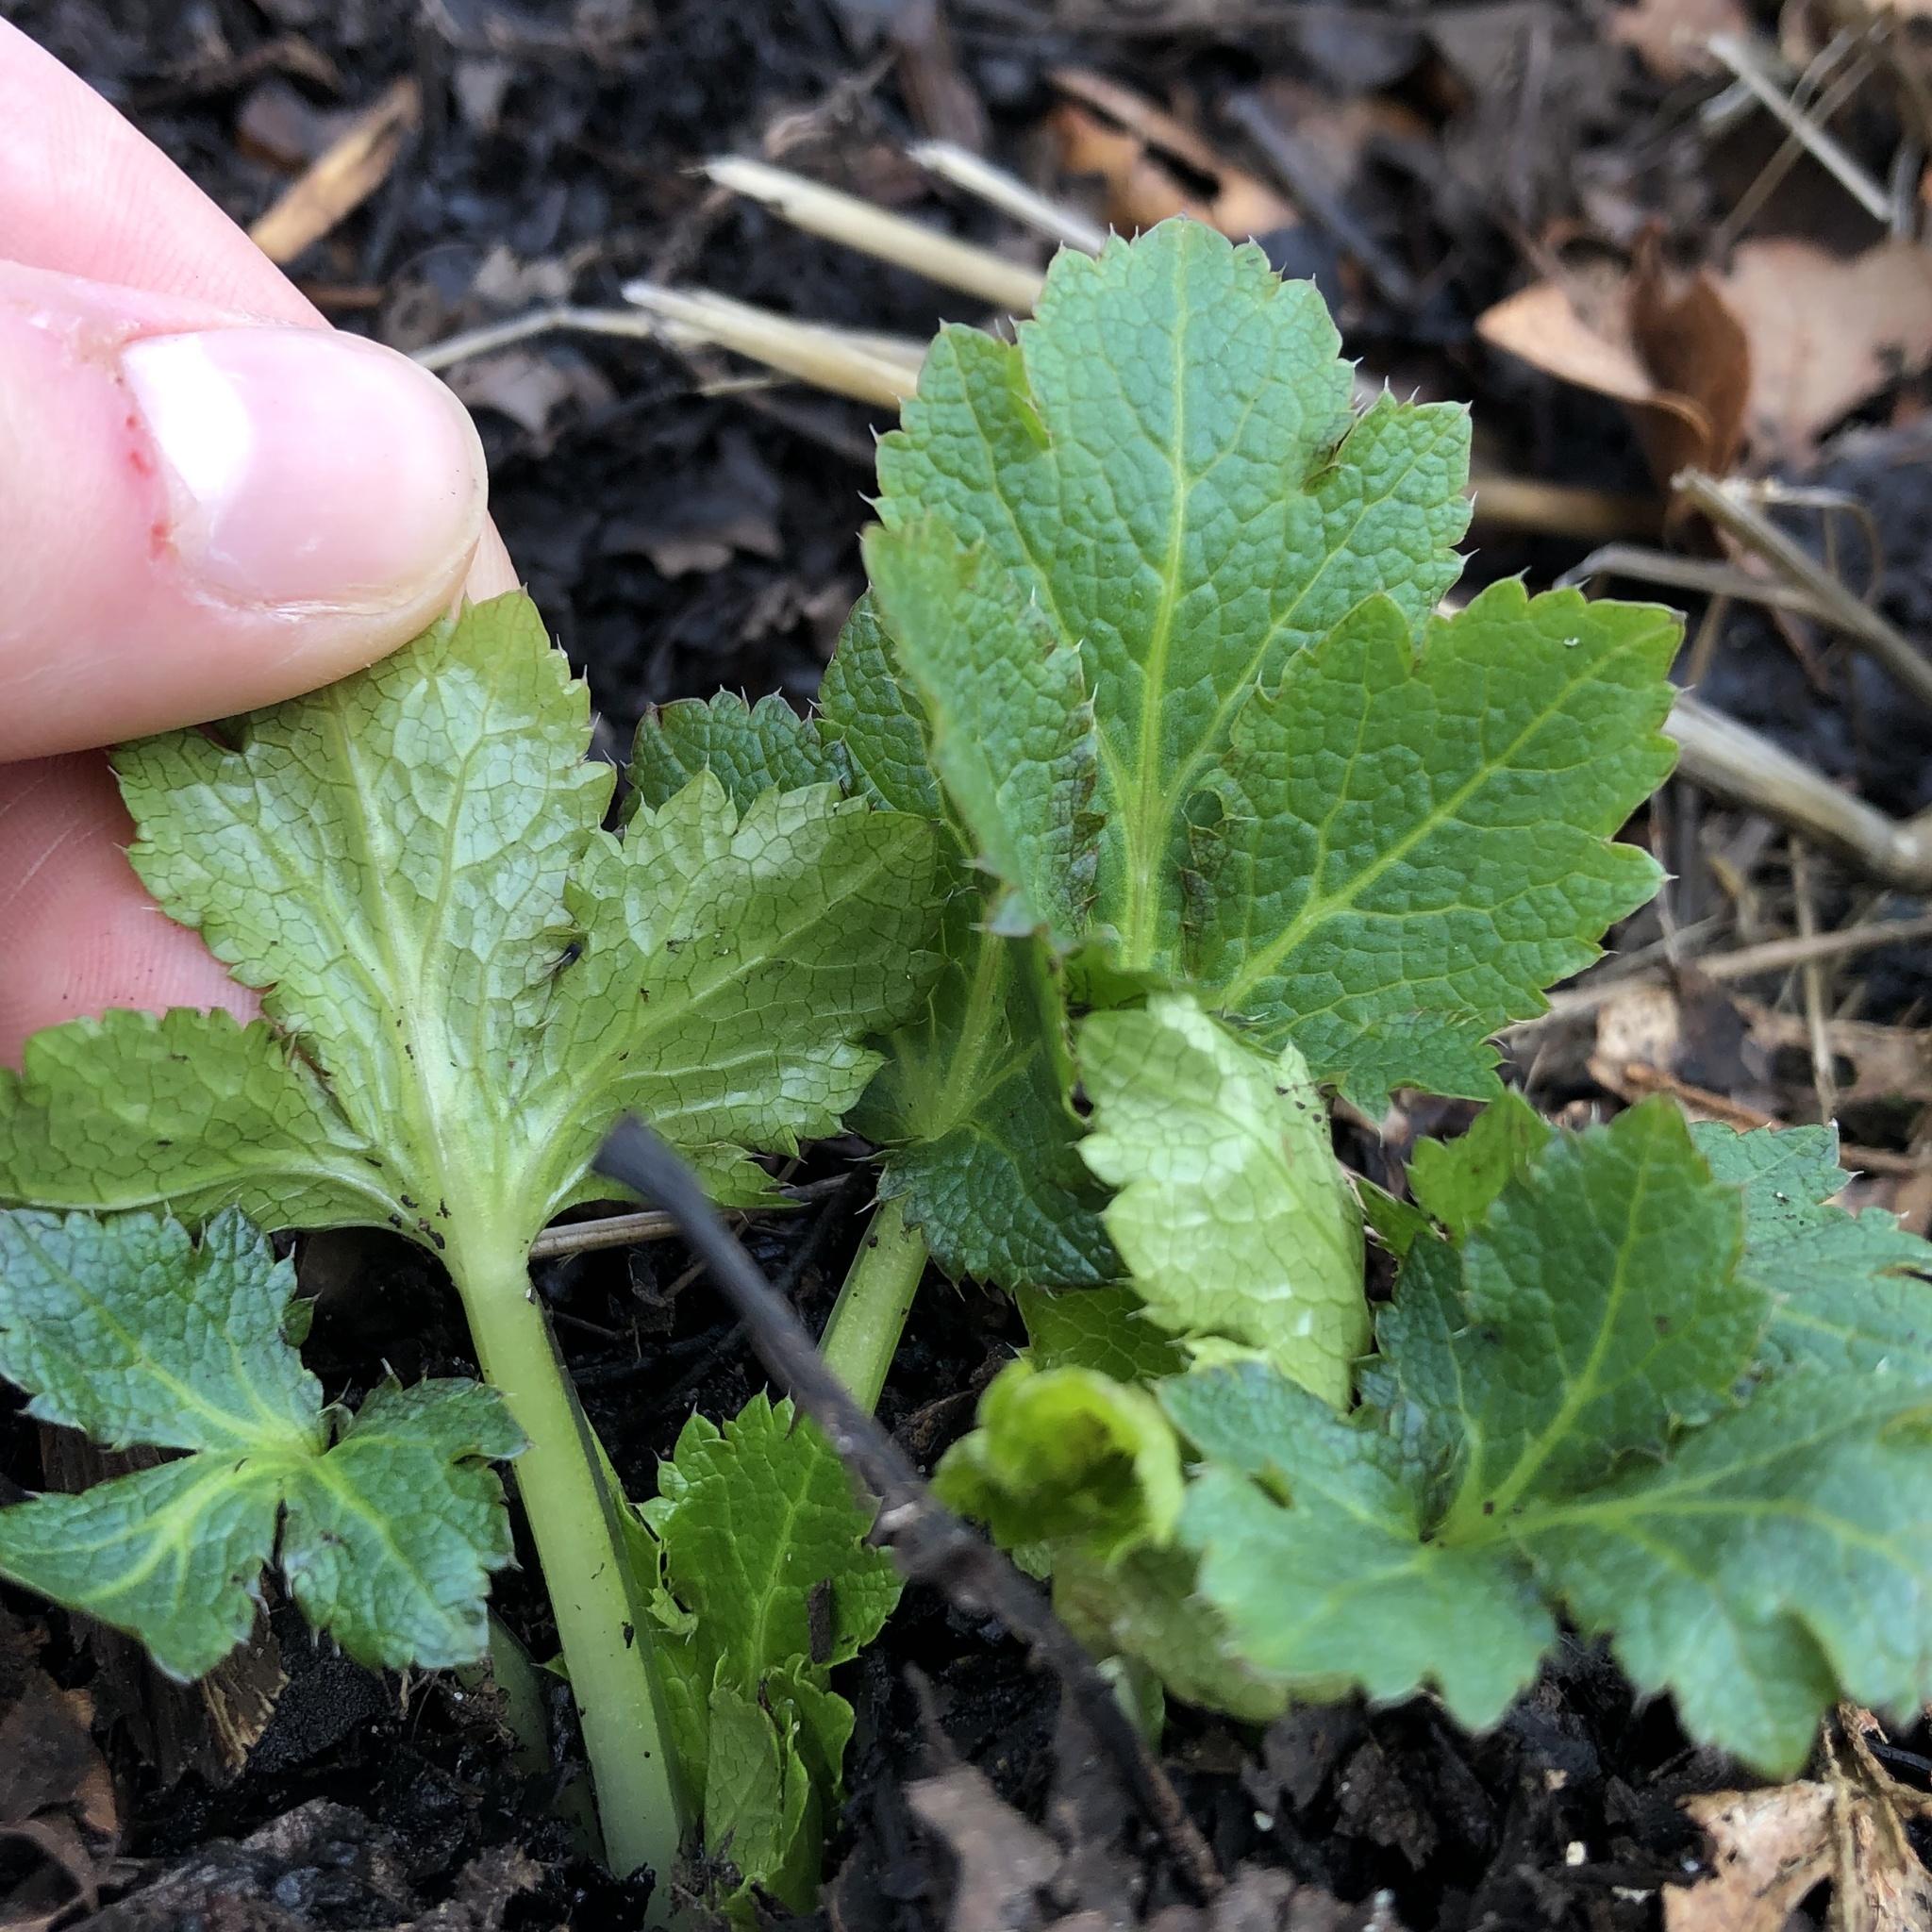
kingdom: Plantae
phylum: Tracheophyta
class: Magnoliopsida
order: Apiales
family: Apiaceae
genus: Sanicula
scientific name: Sanicula crassicaulis
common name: Western snakeroot
